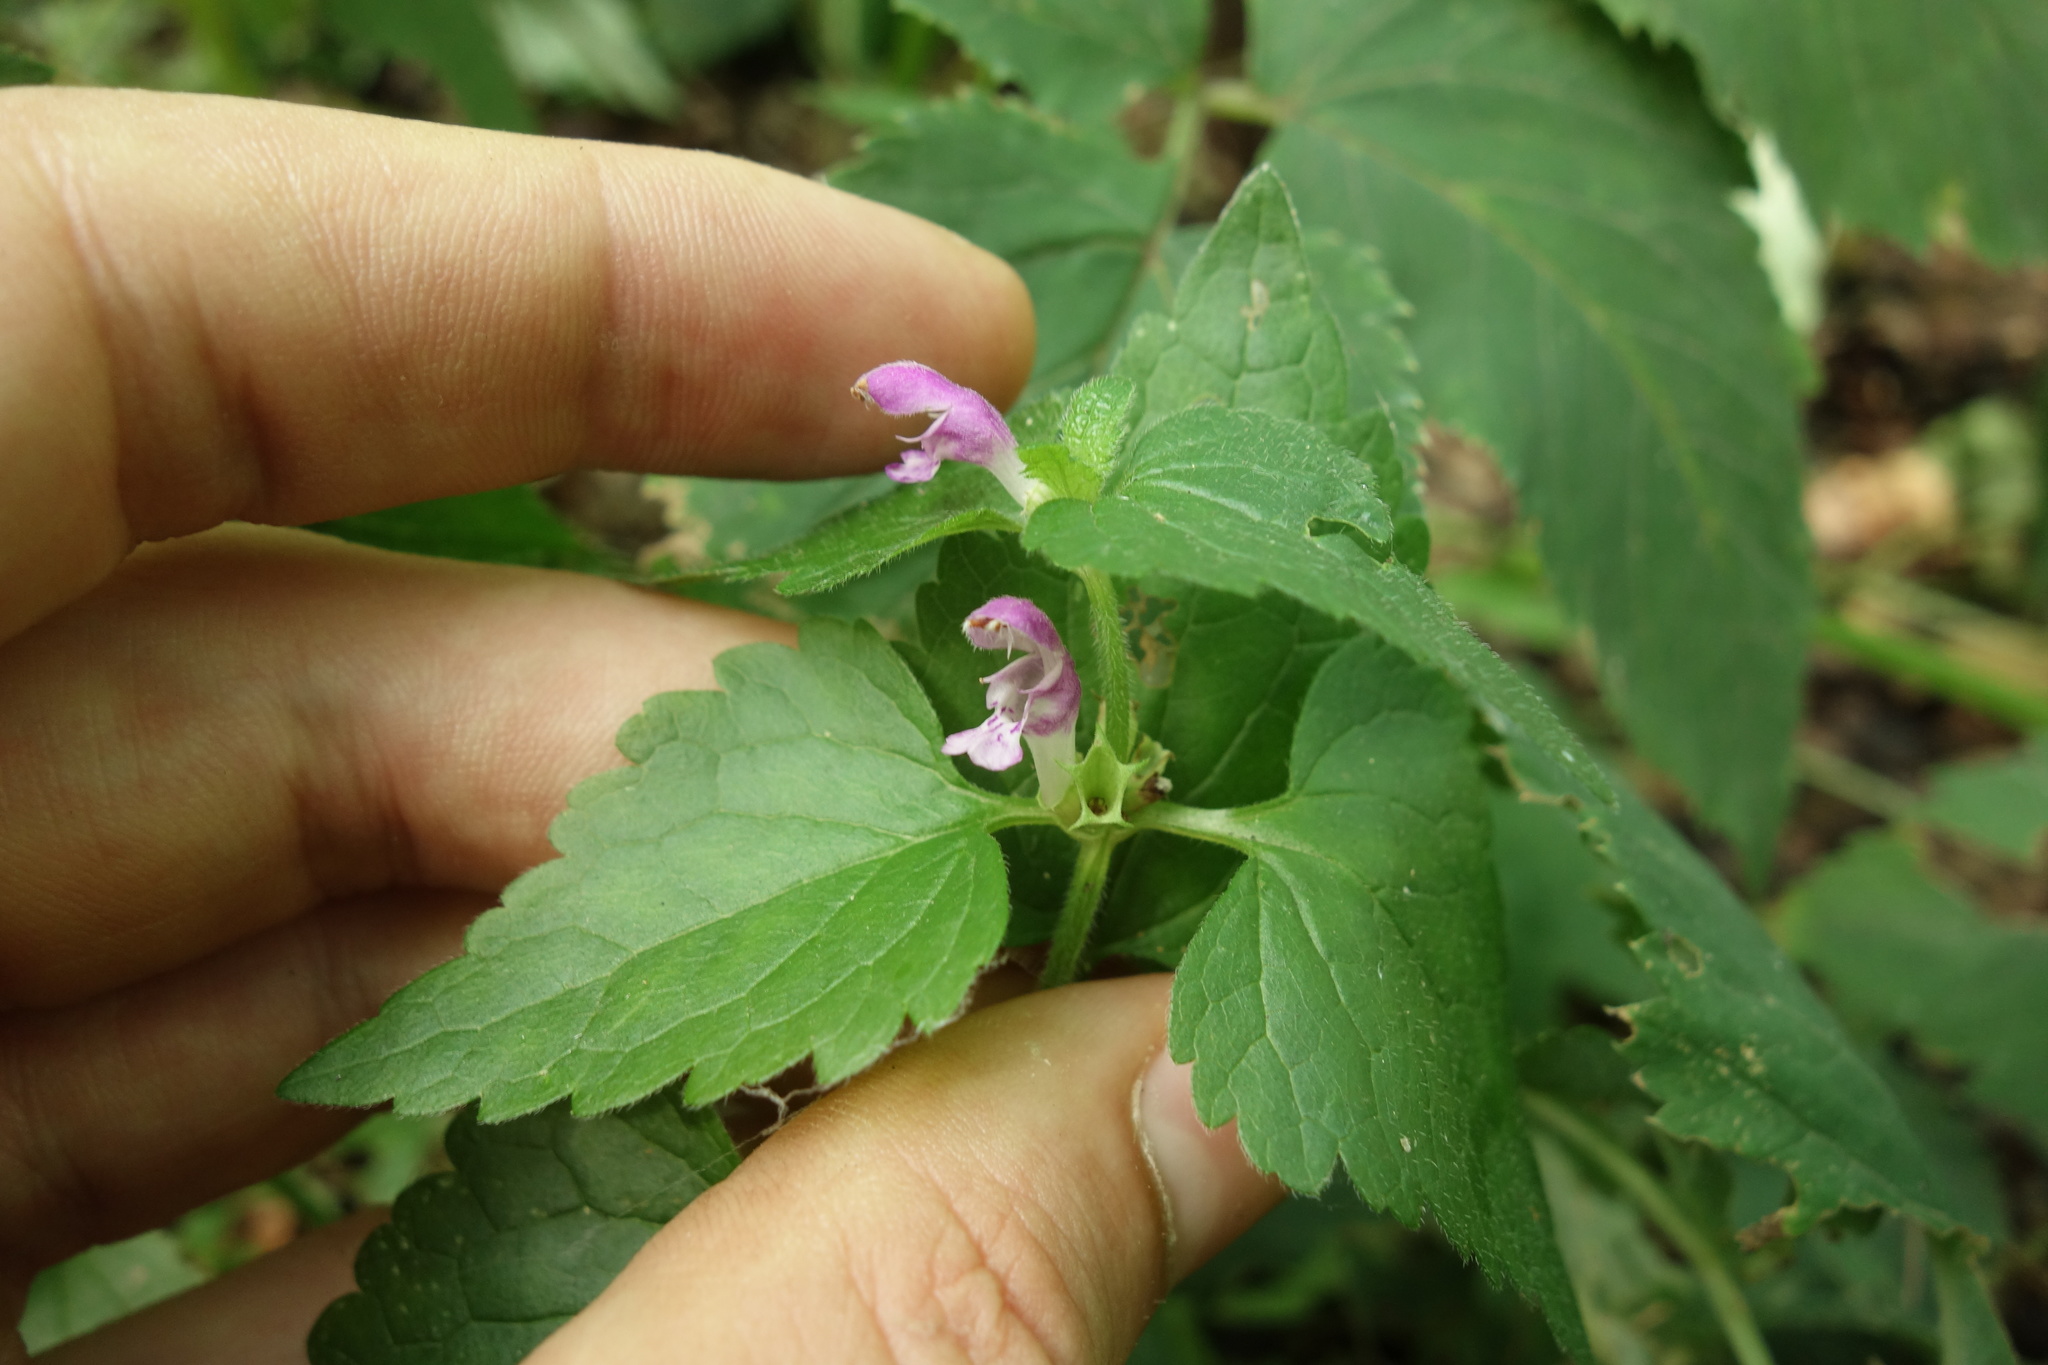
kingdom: Plantae
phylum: Tracheophyta
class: Magnoliopsida
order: Lamiales
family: Lamiaceae
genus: Lamium
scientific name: Lamium maculatum
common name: Spotted dead-nettle
